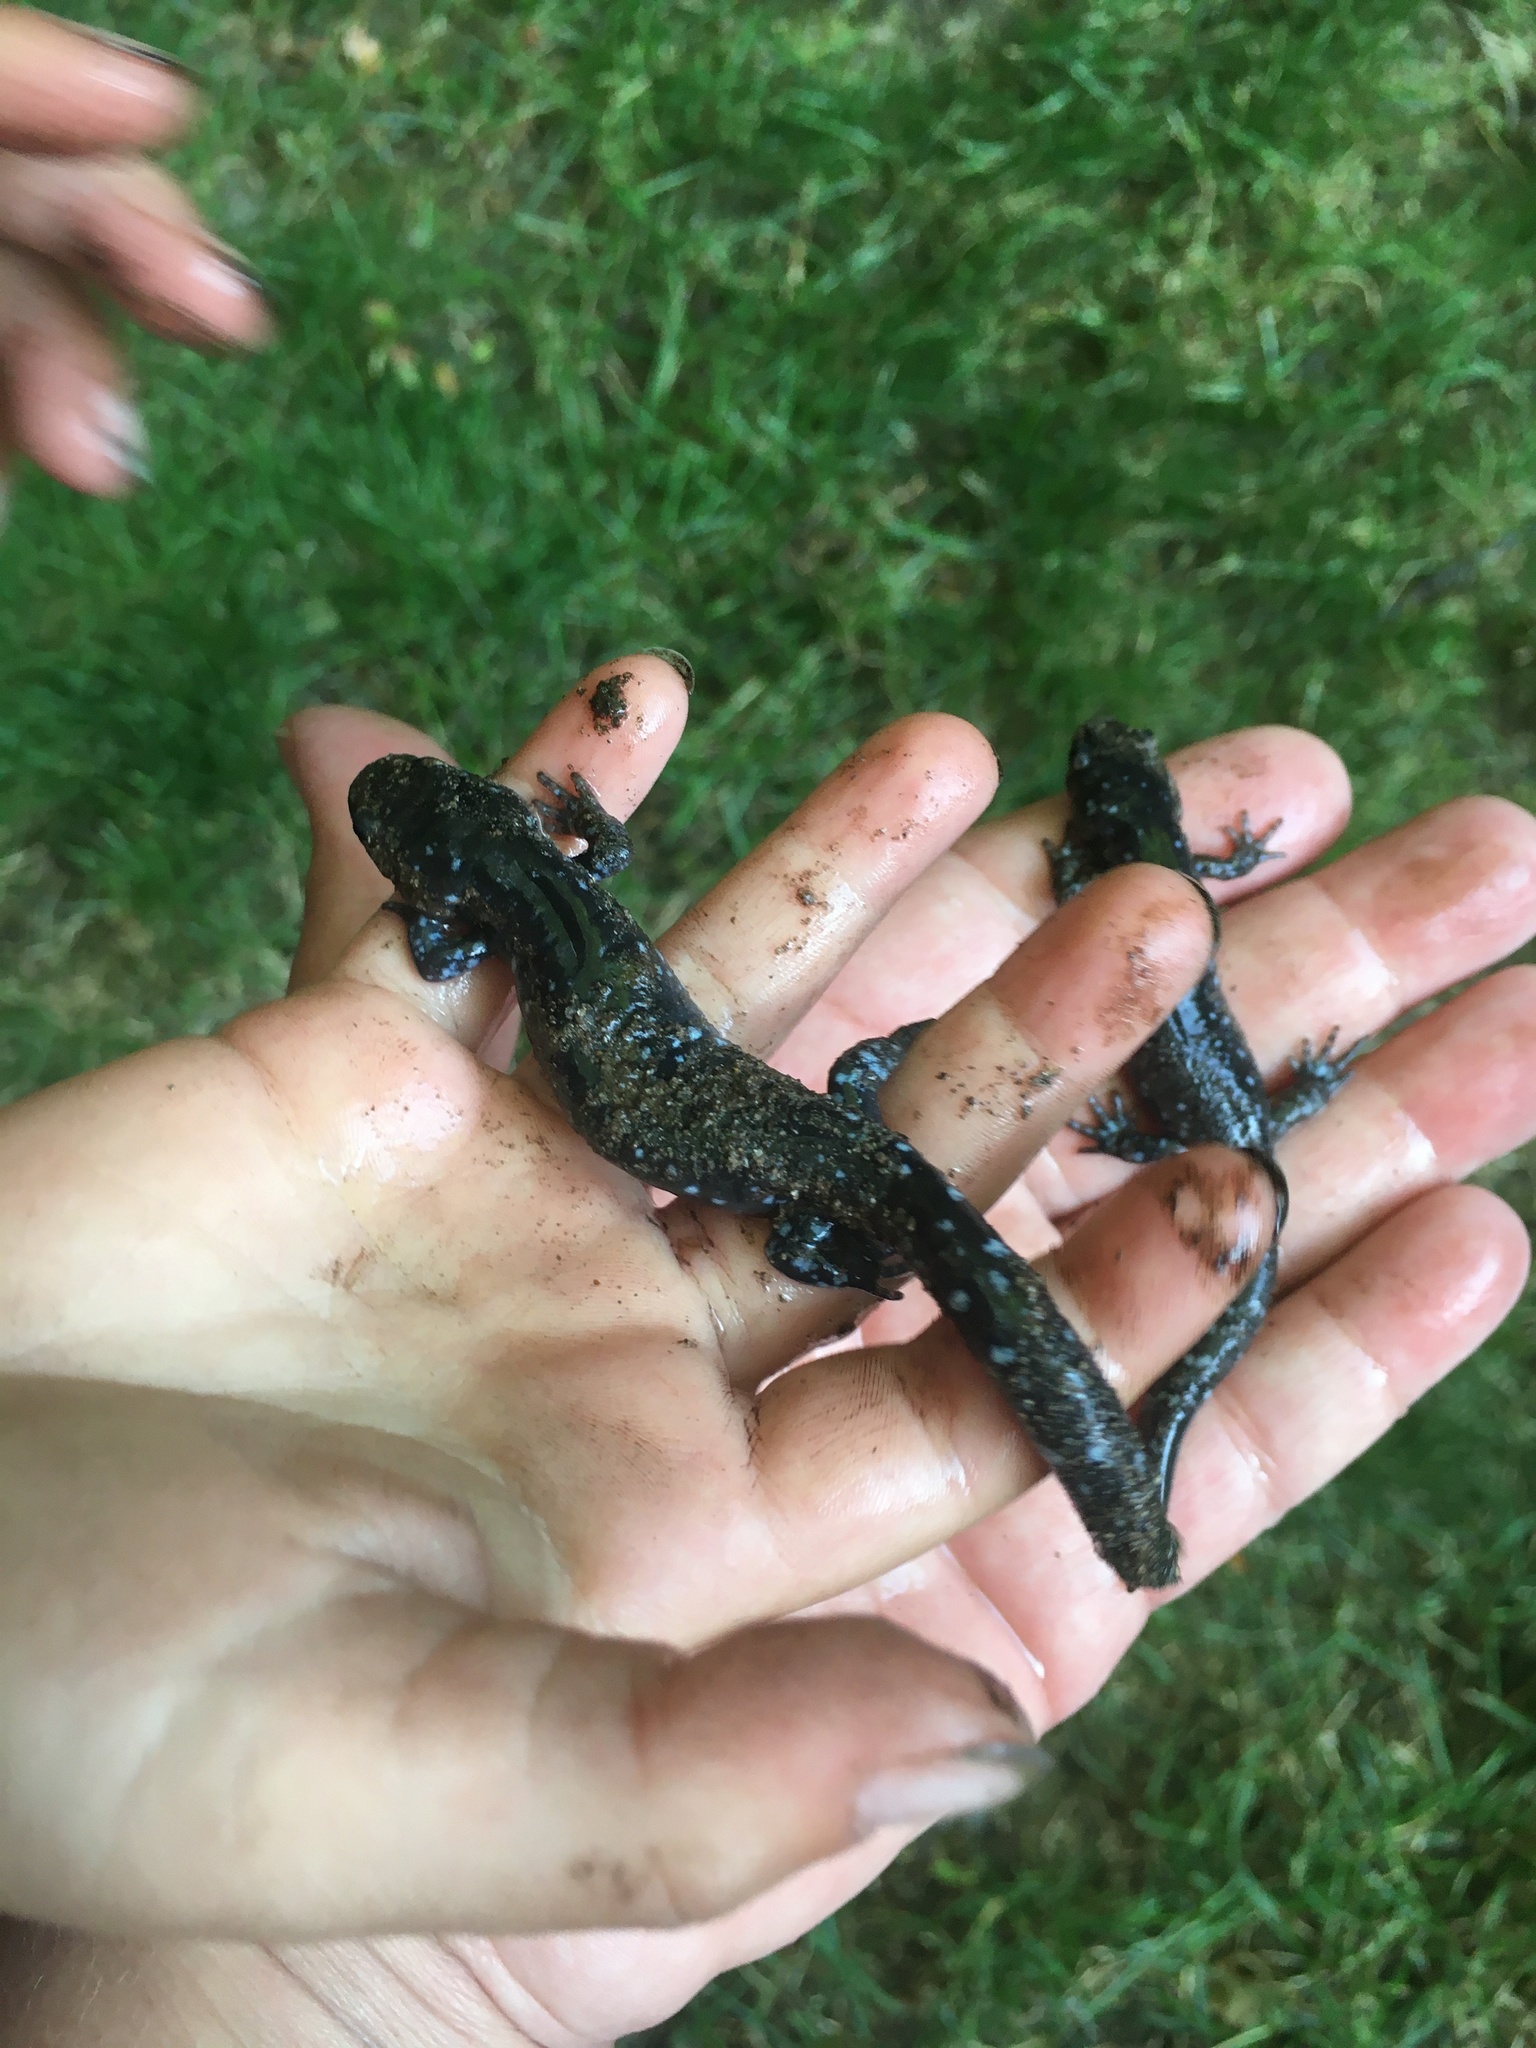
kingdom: Animalia
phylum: Chordata
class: Amphibia
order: Caudata
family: Ambystomatidae
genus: Ambystoma
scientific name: Ambystoma laterale
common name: Blue-spotted salamander
